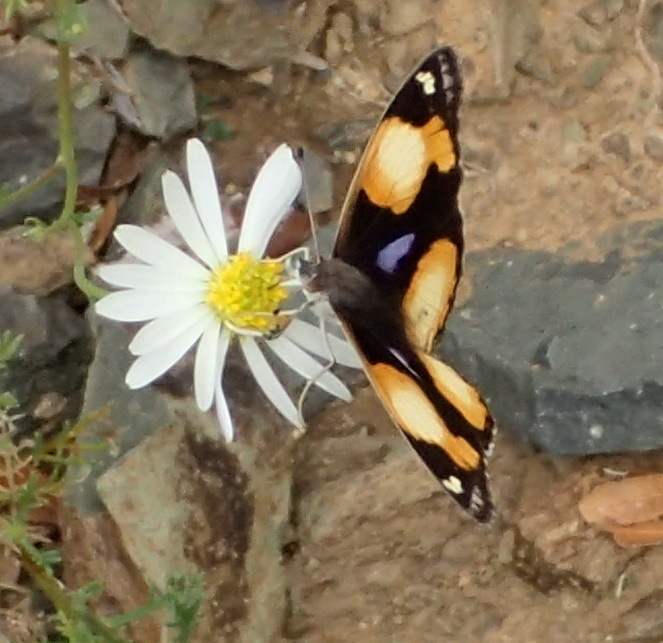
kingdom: Animalia
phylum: Arthropoda
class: Insecta
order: Lepidoptera
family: Nymphalidae
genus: Junonia
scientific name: Junonia hierta
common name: Yellow pansy
